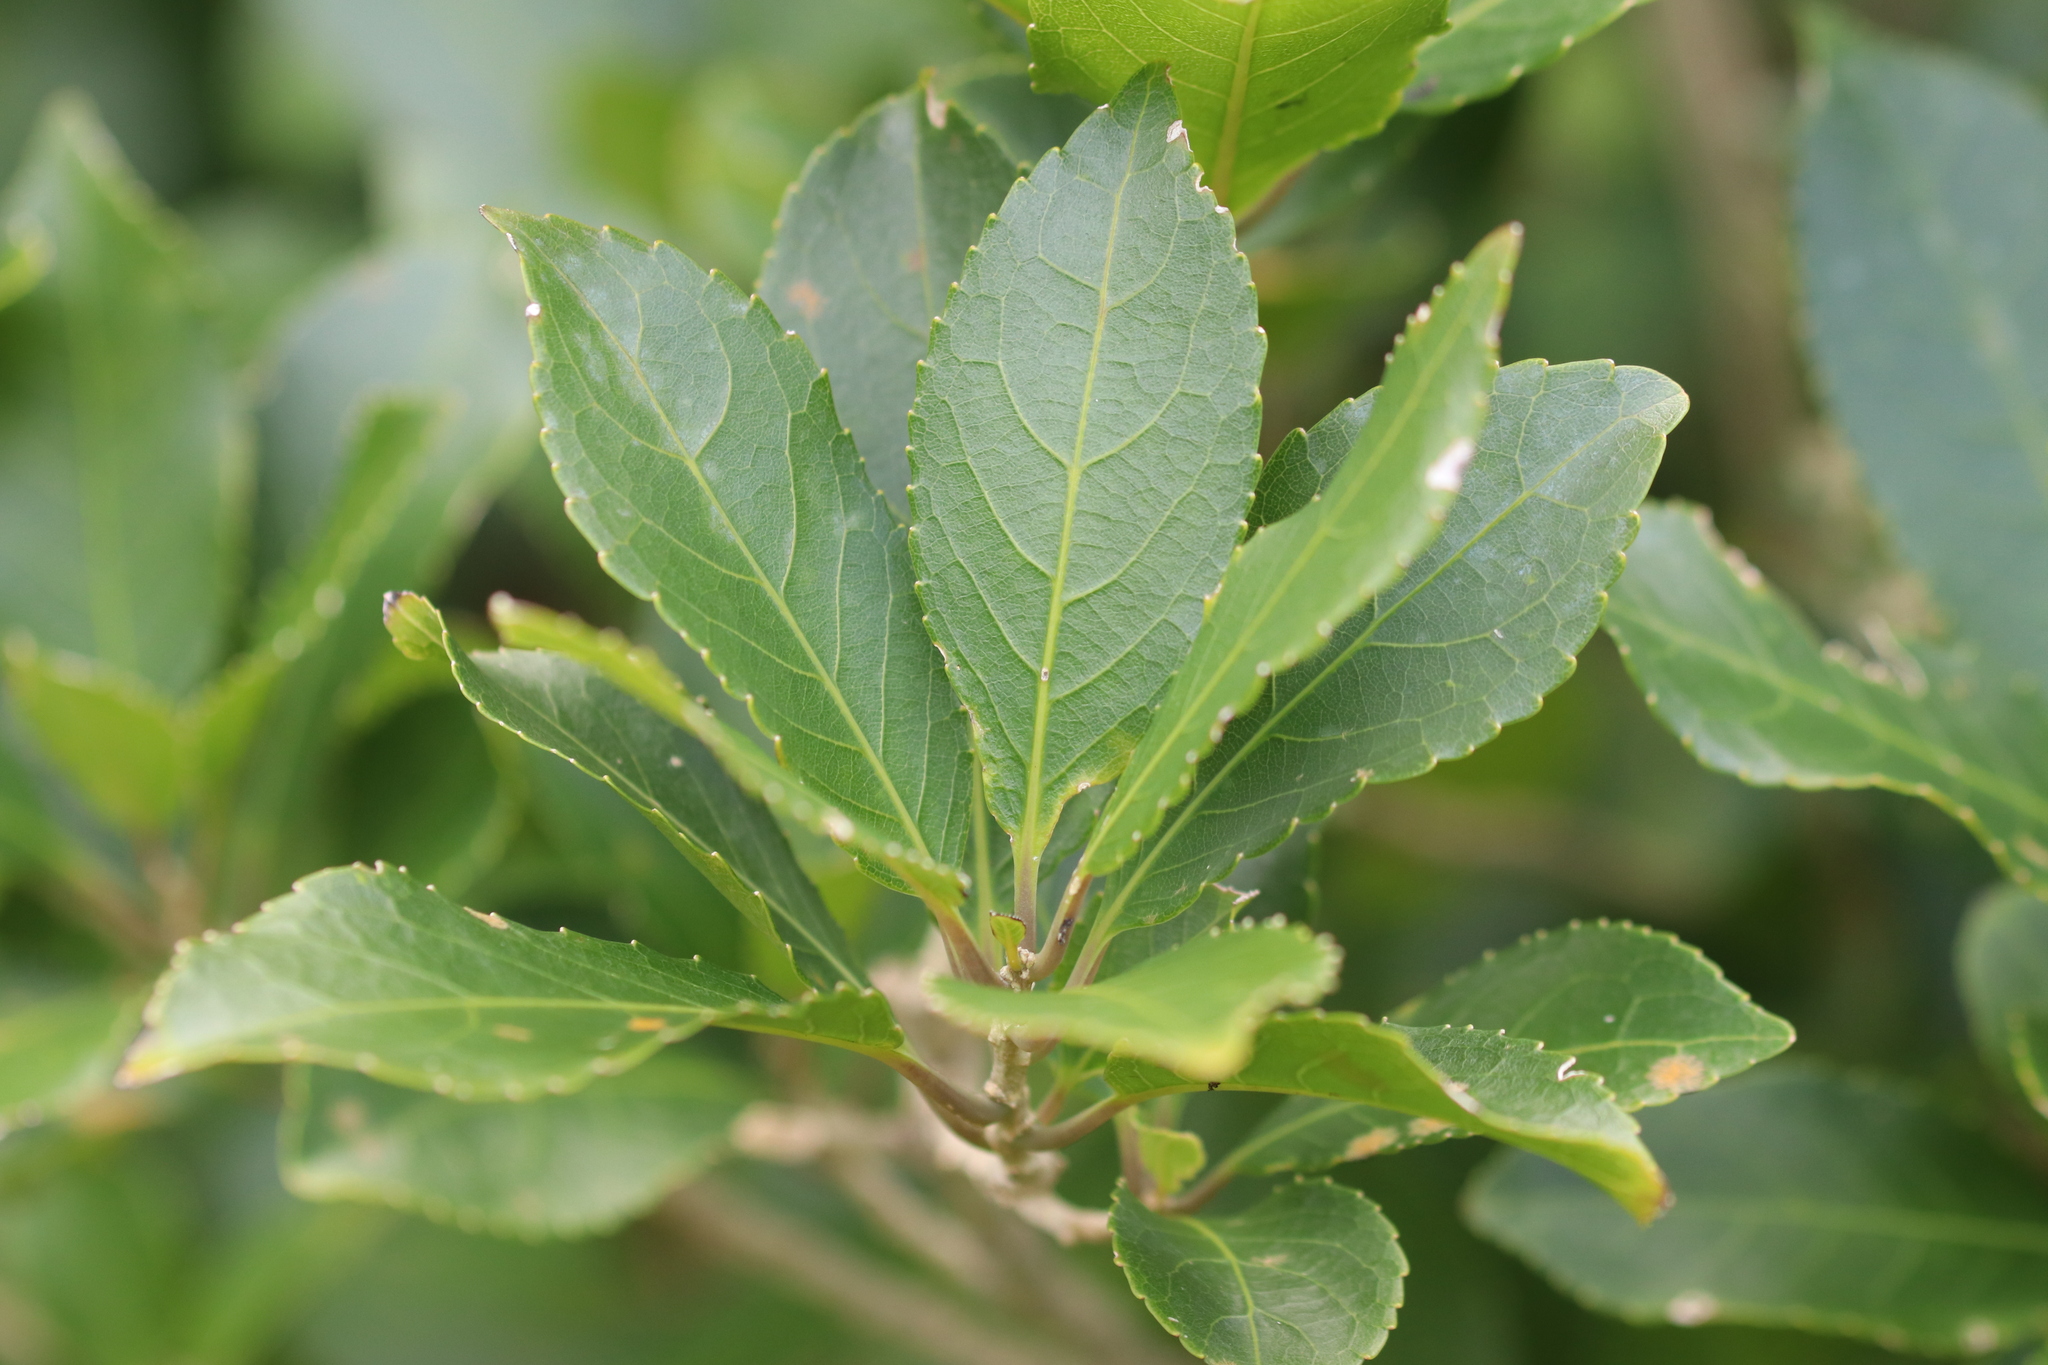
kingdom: Plantae
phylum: Tracheophyta
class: Magnoliopsida
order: Malpighiales
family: Violaceae
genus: Melicytus
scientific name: Melicytus ramiflorus
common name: Mahoe
